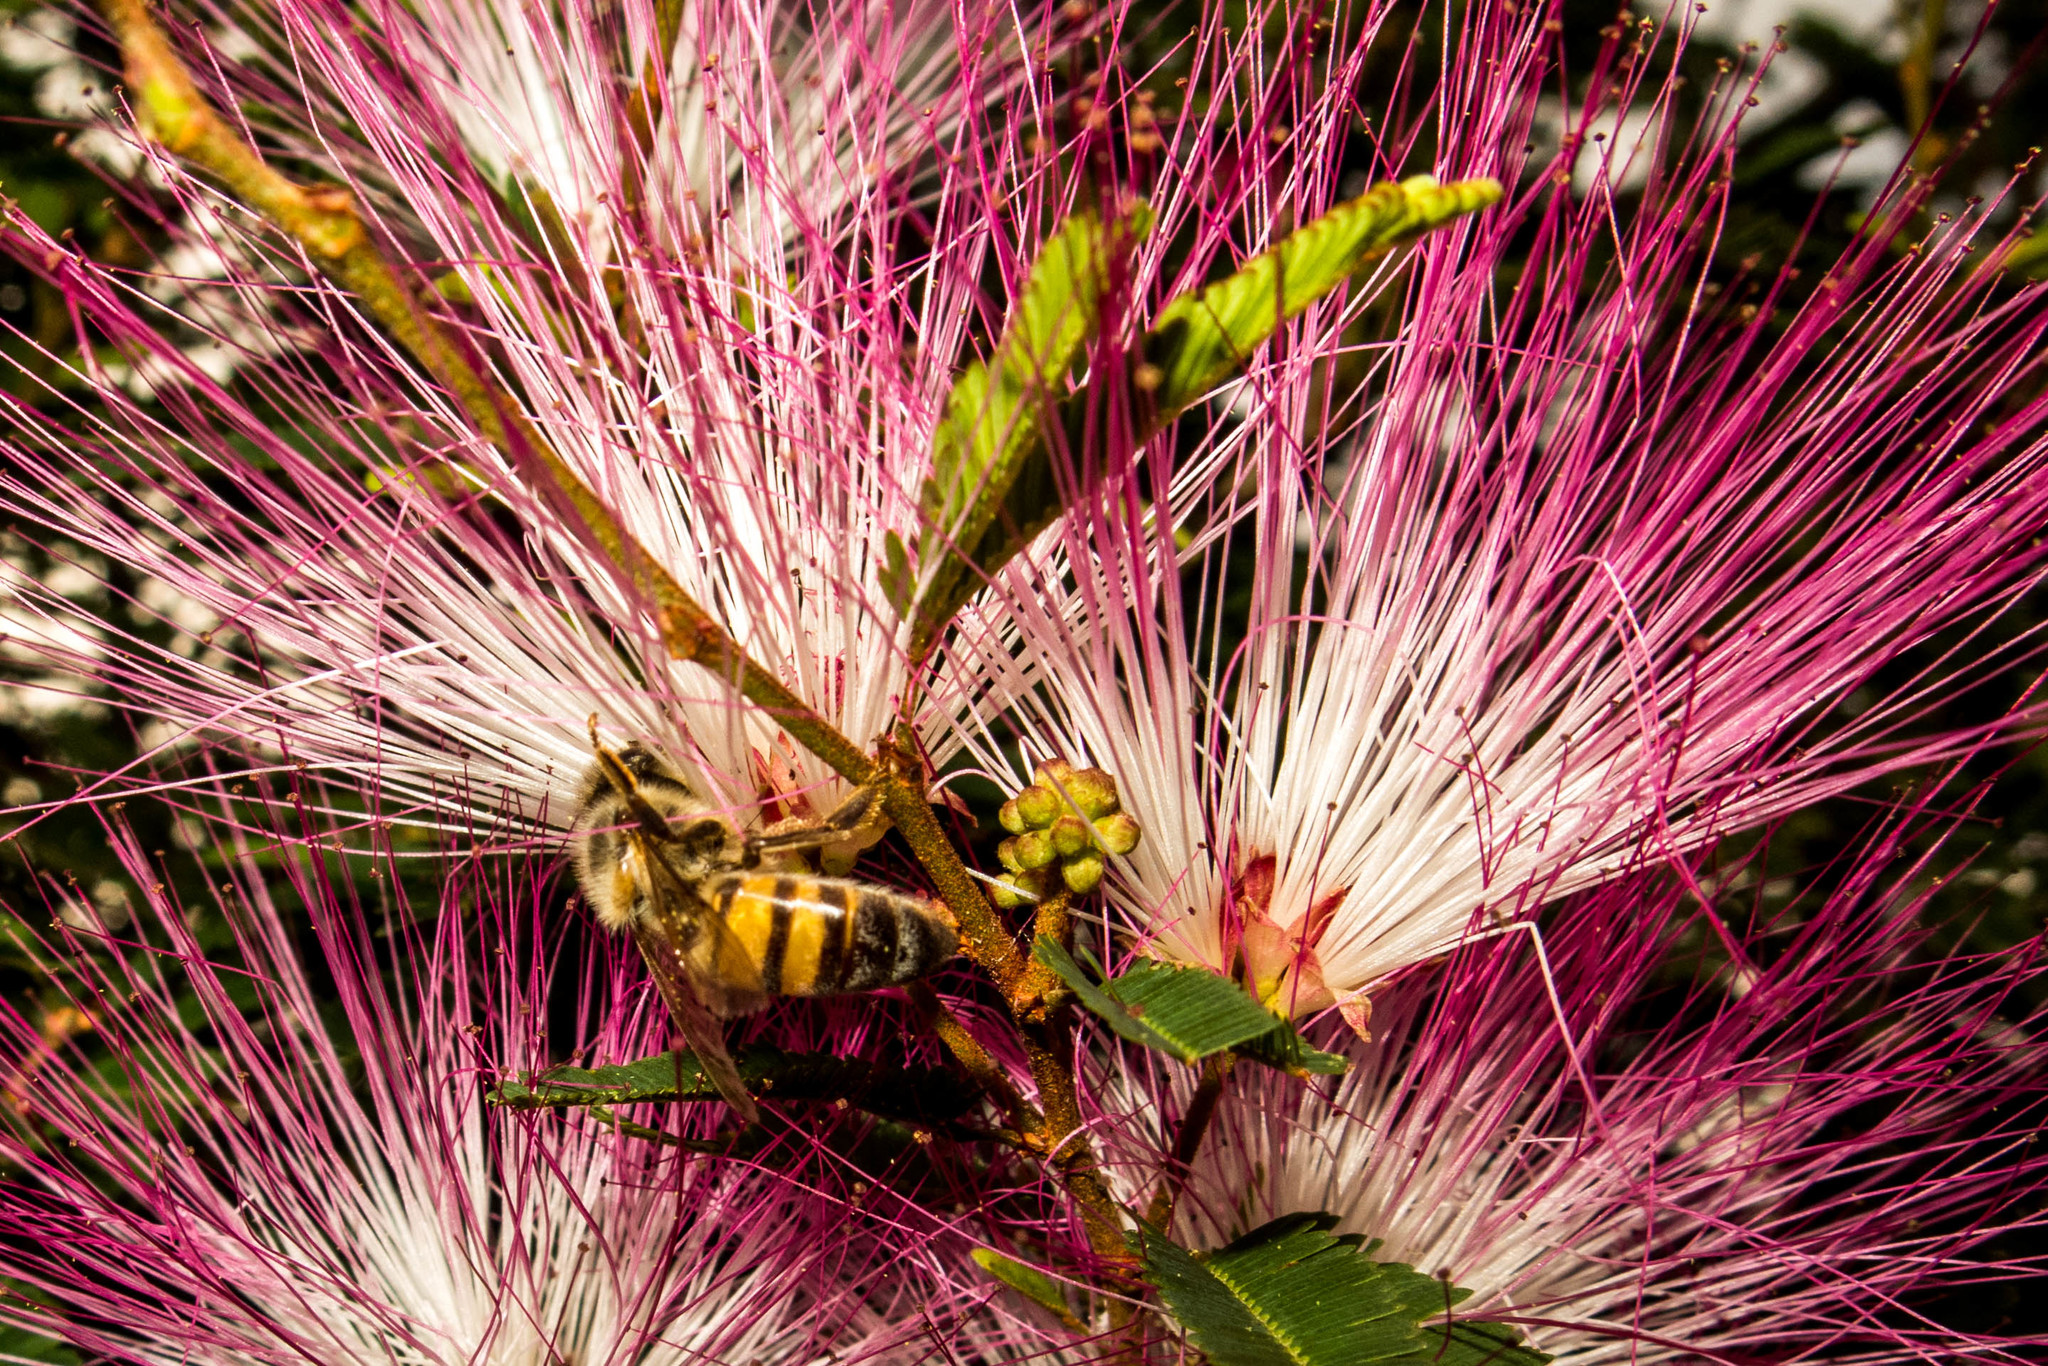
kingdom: Animalia
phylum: Arthropoda
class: Insecta
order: Hymenoptera
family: Apidae
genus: Apis
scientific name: Apis mellifera
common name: Honey bee
